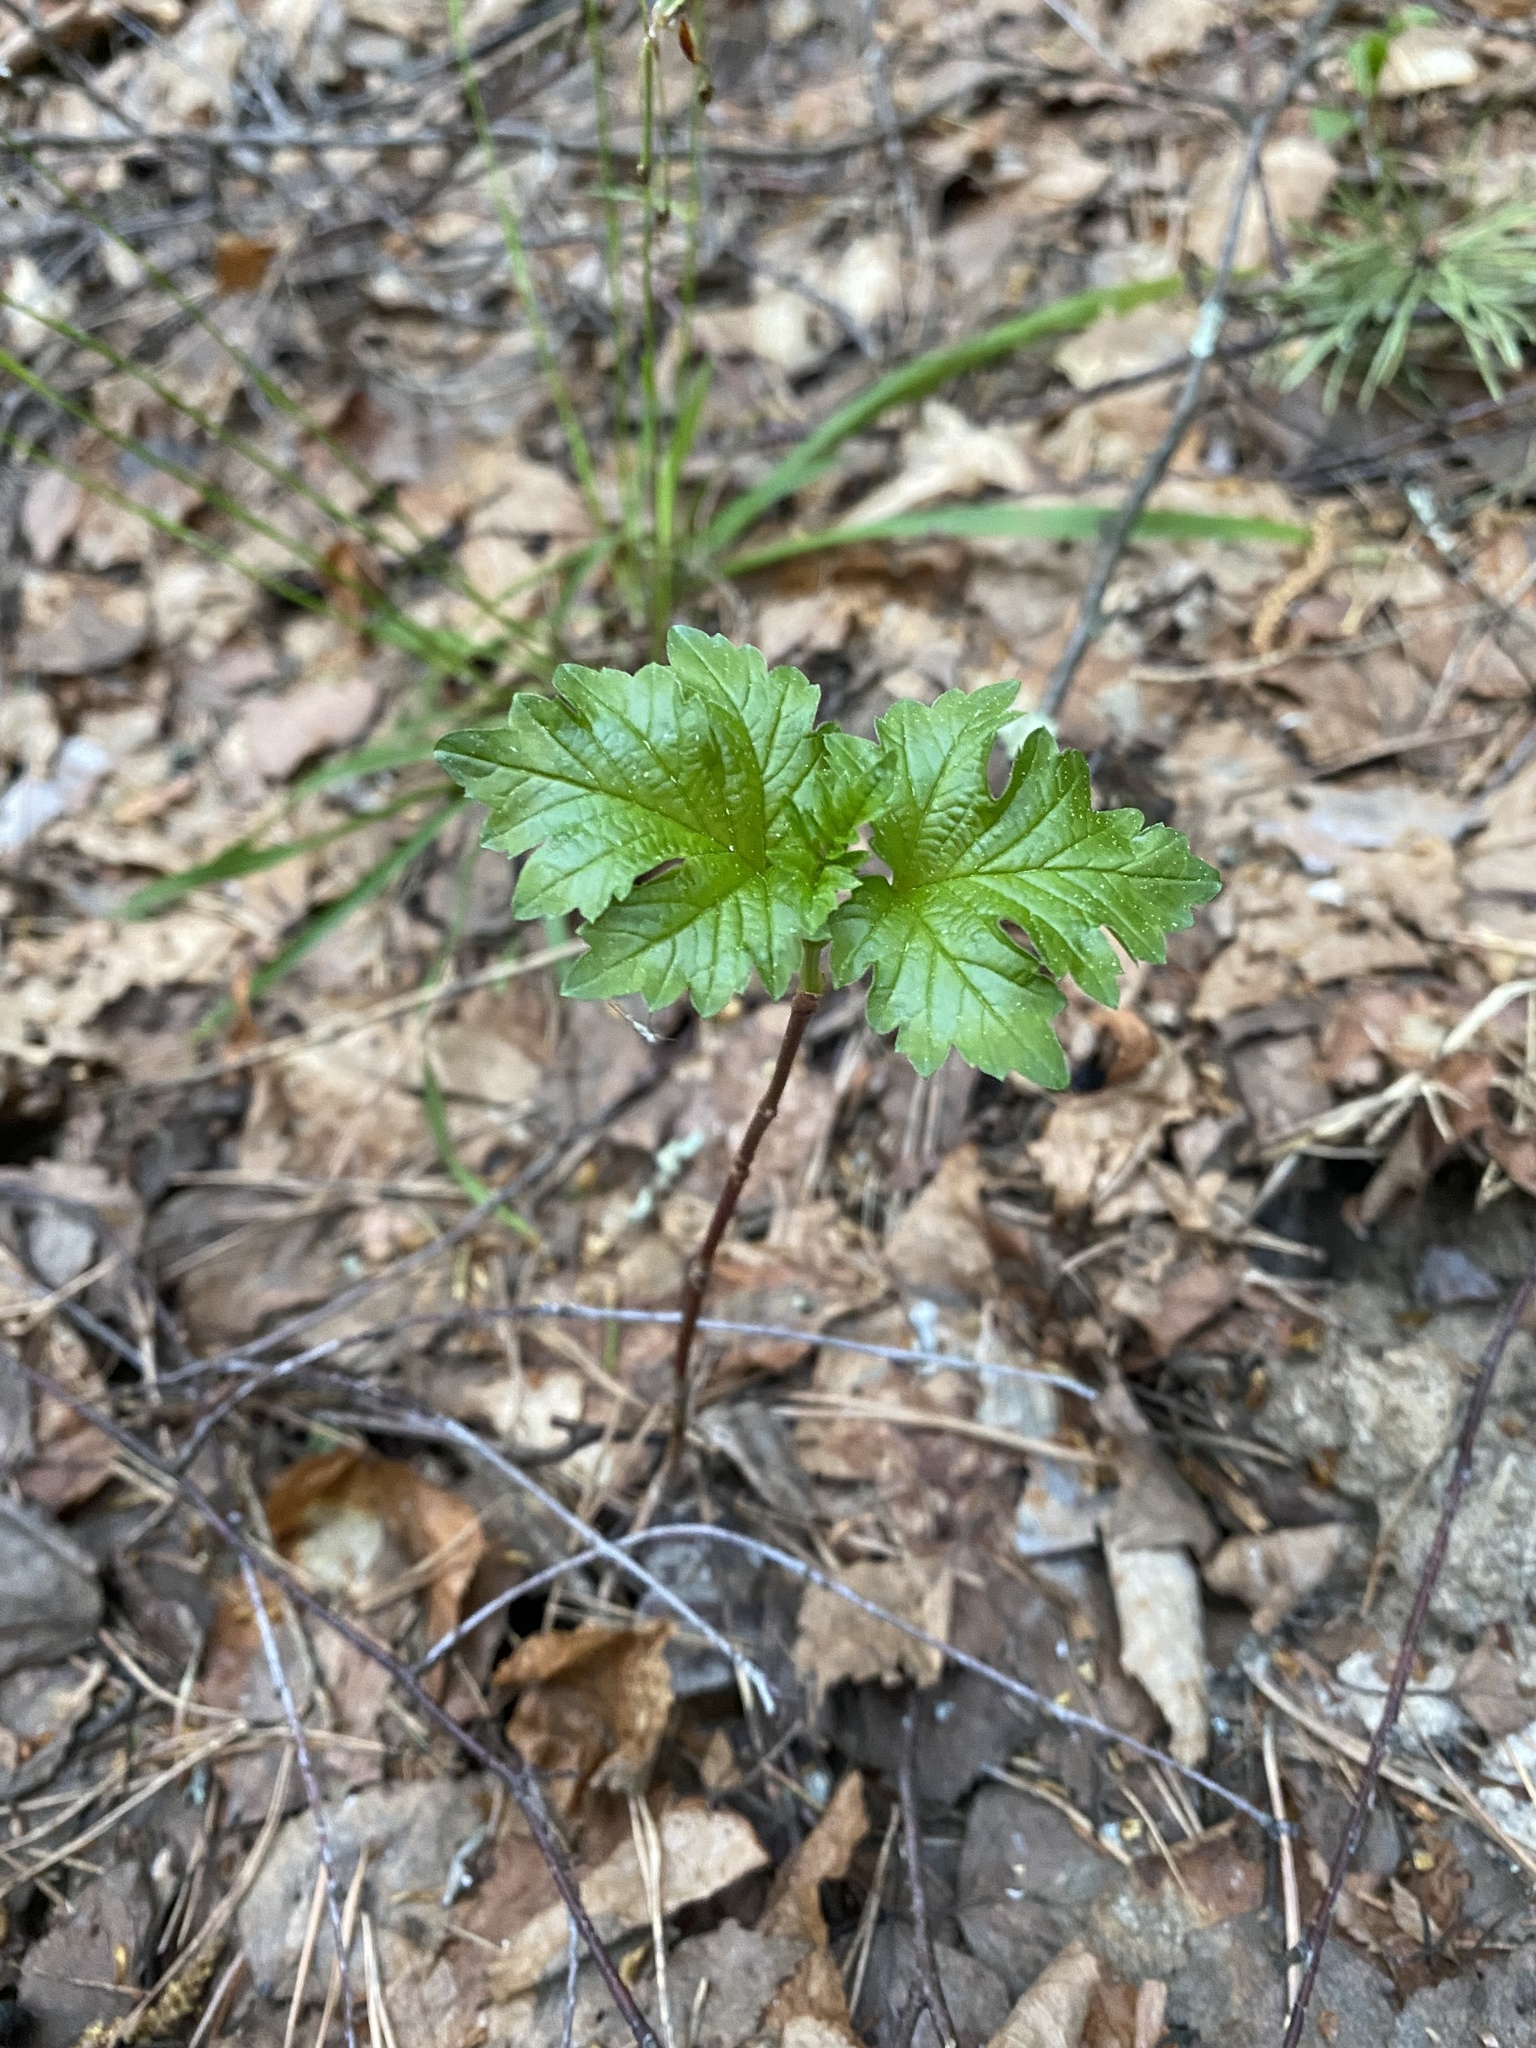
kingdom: Plantae
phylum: Tracheophyta
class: Magnoliopsida
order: Dipsacales
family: Viburnaceae
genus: Viburnum
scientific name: Viburnum opulus
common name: Guelder-rose
